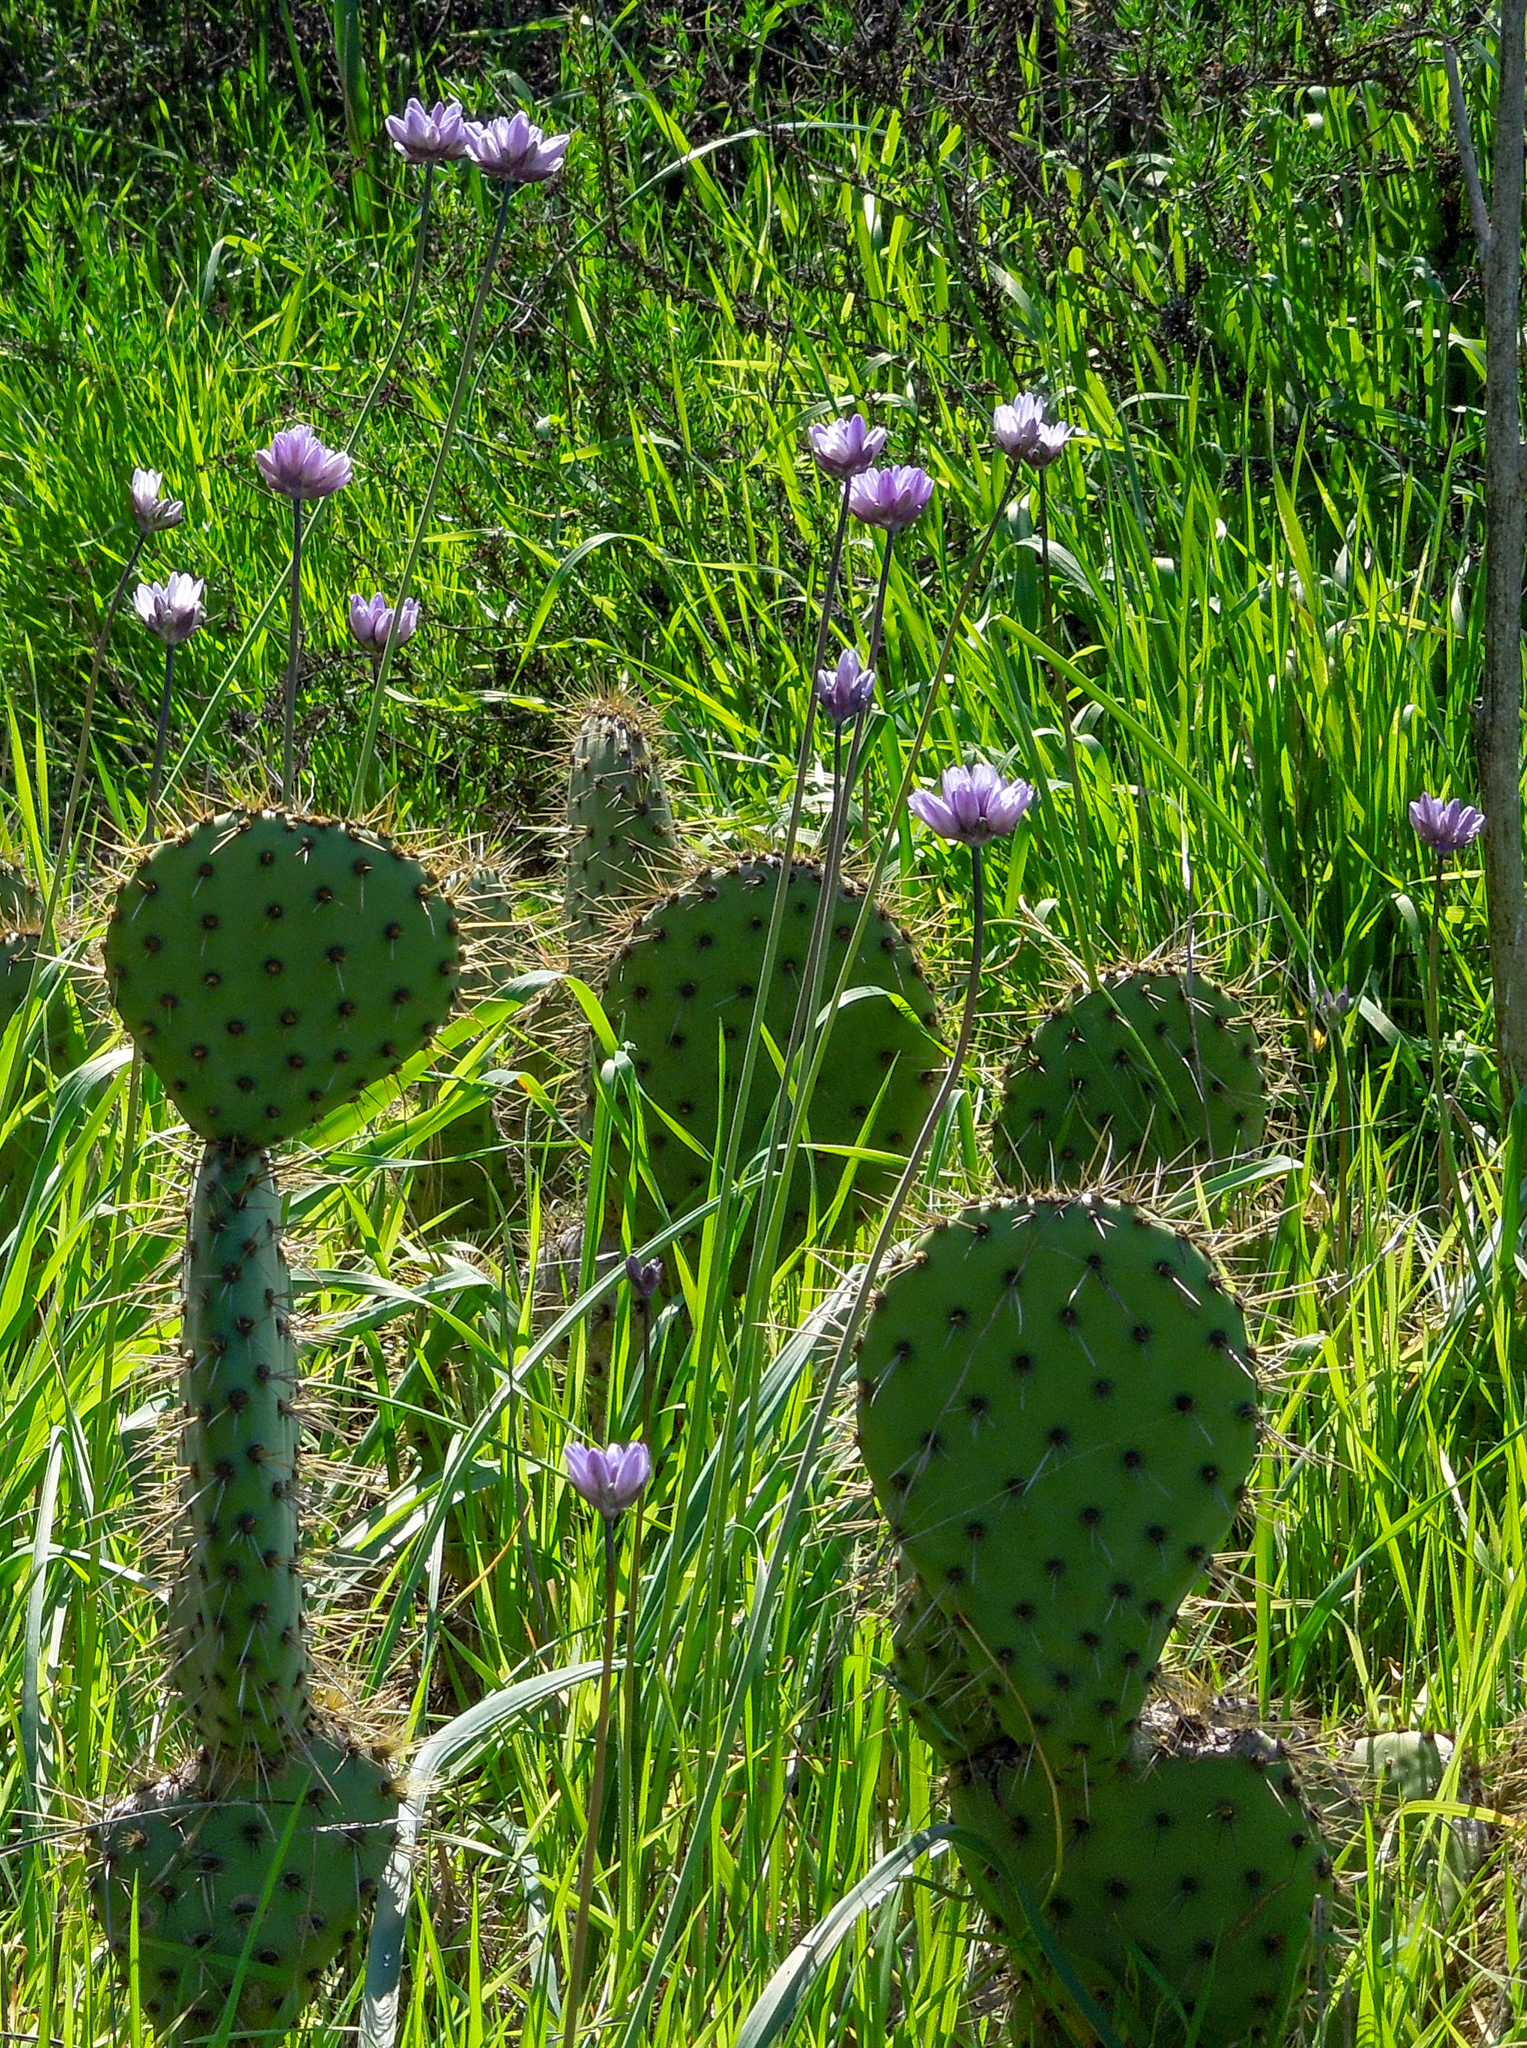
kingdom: Plantae
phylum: Tracheophyta
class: Liliopsida
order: Asparagales
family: Asparagaceae
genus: Dipterostemon
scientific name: Dipterostemon capitatus
